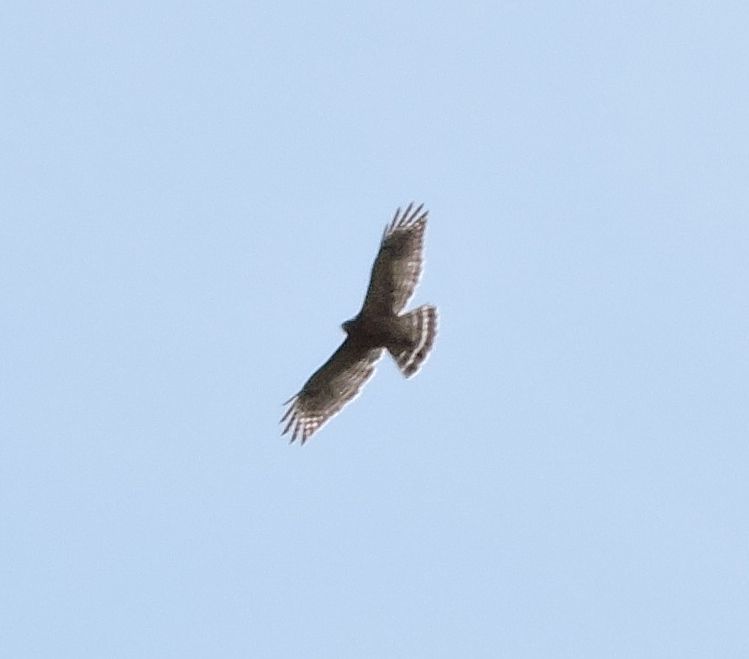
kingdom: Animalia
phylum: Chordata
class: Aves
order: Accipitriformes
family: Accipitridae
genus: Buteo
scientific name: Buteo lineatus
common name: Red-shouldered hawk
